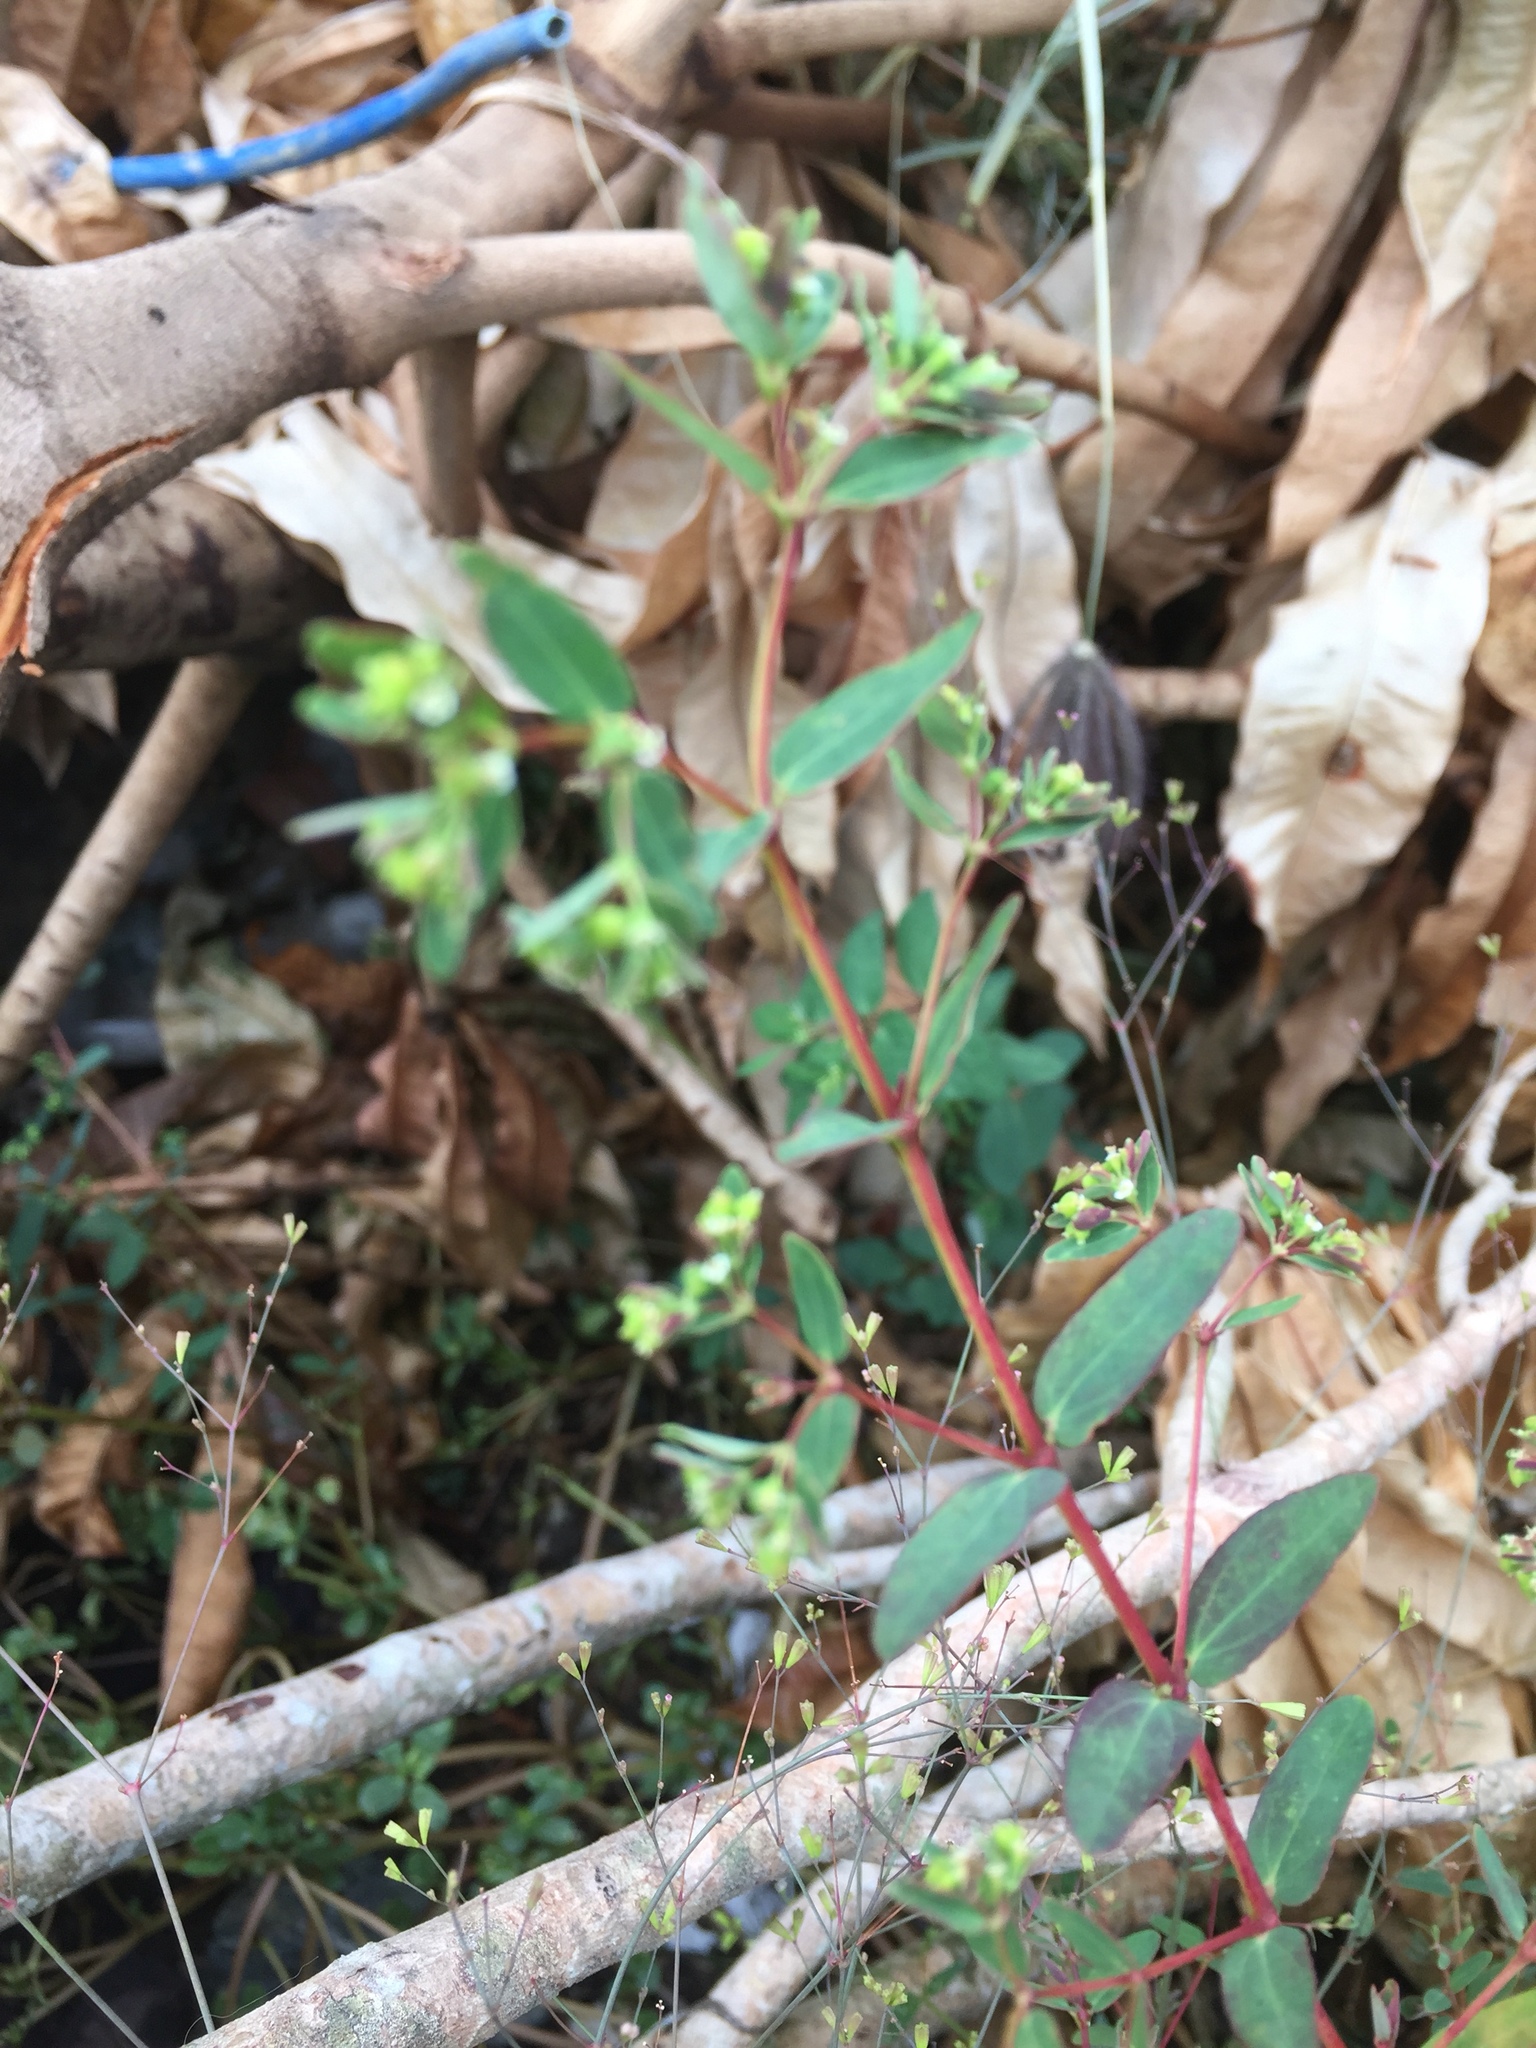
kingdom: Plantae
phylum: Tracheophyta
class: Magnoliopsida
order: Malpighiales
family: Euphorbiaceae
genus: Euphorbia
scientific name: Euphorbia hyssopifolia
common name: Hyssopleaf sandmat
